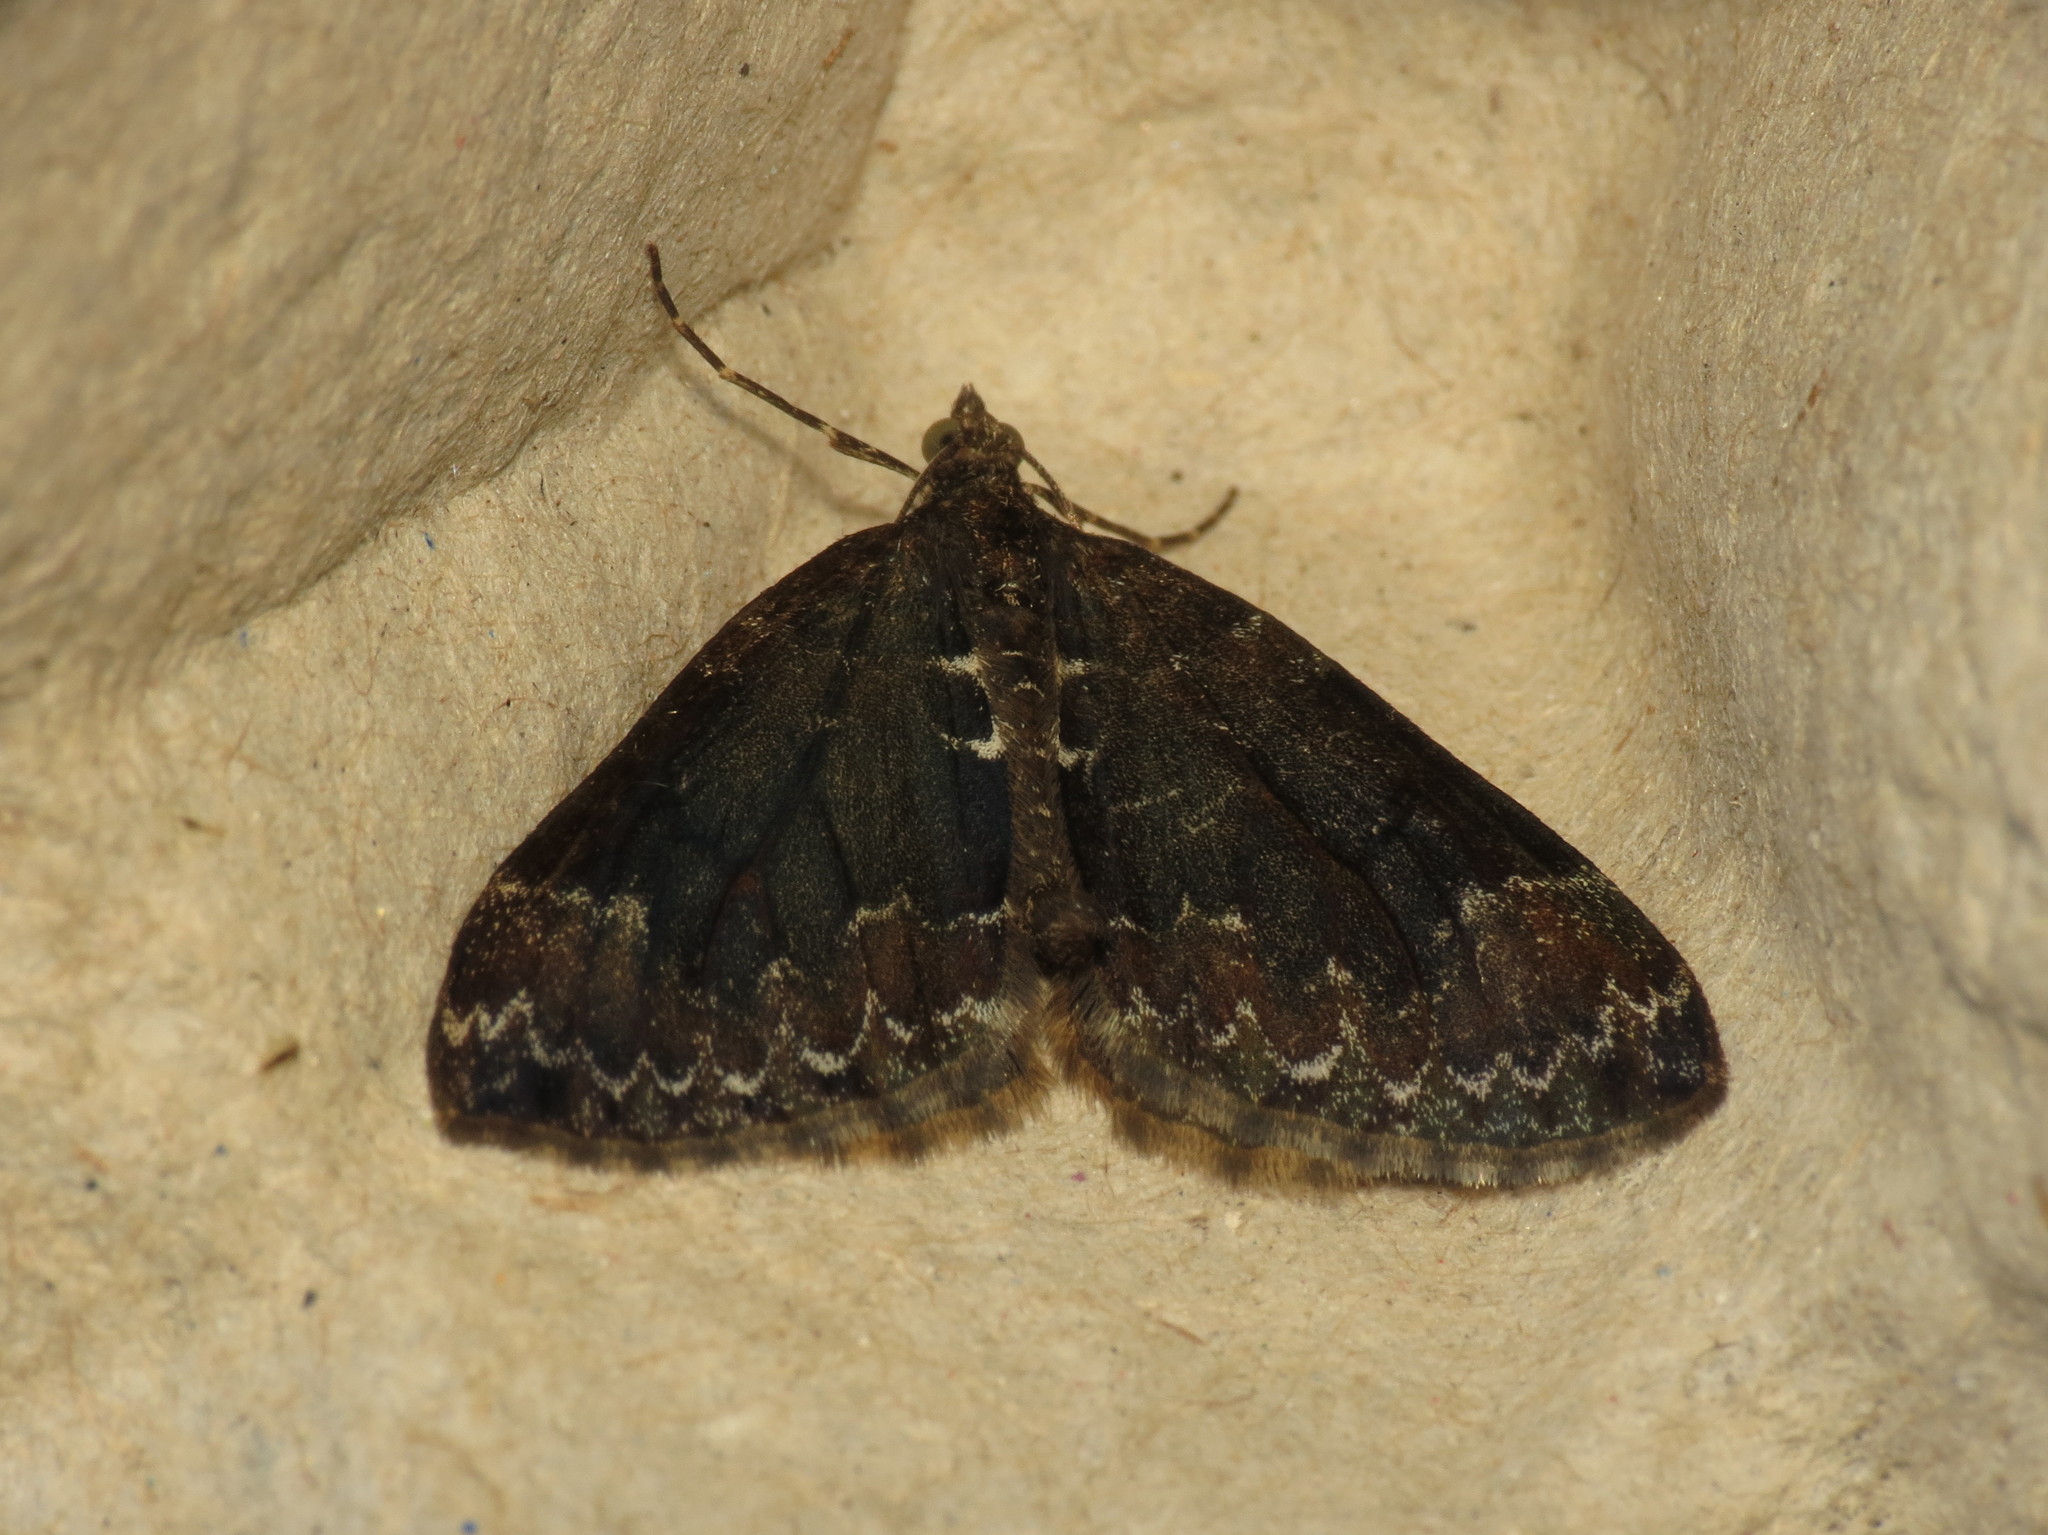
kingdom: Animalia
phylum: Arthropoda
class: Insecta
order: Lepidoptera
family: Geometridae
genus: Dysstroma
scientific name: Dysstroma truncata
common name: Common marbled carpet
